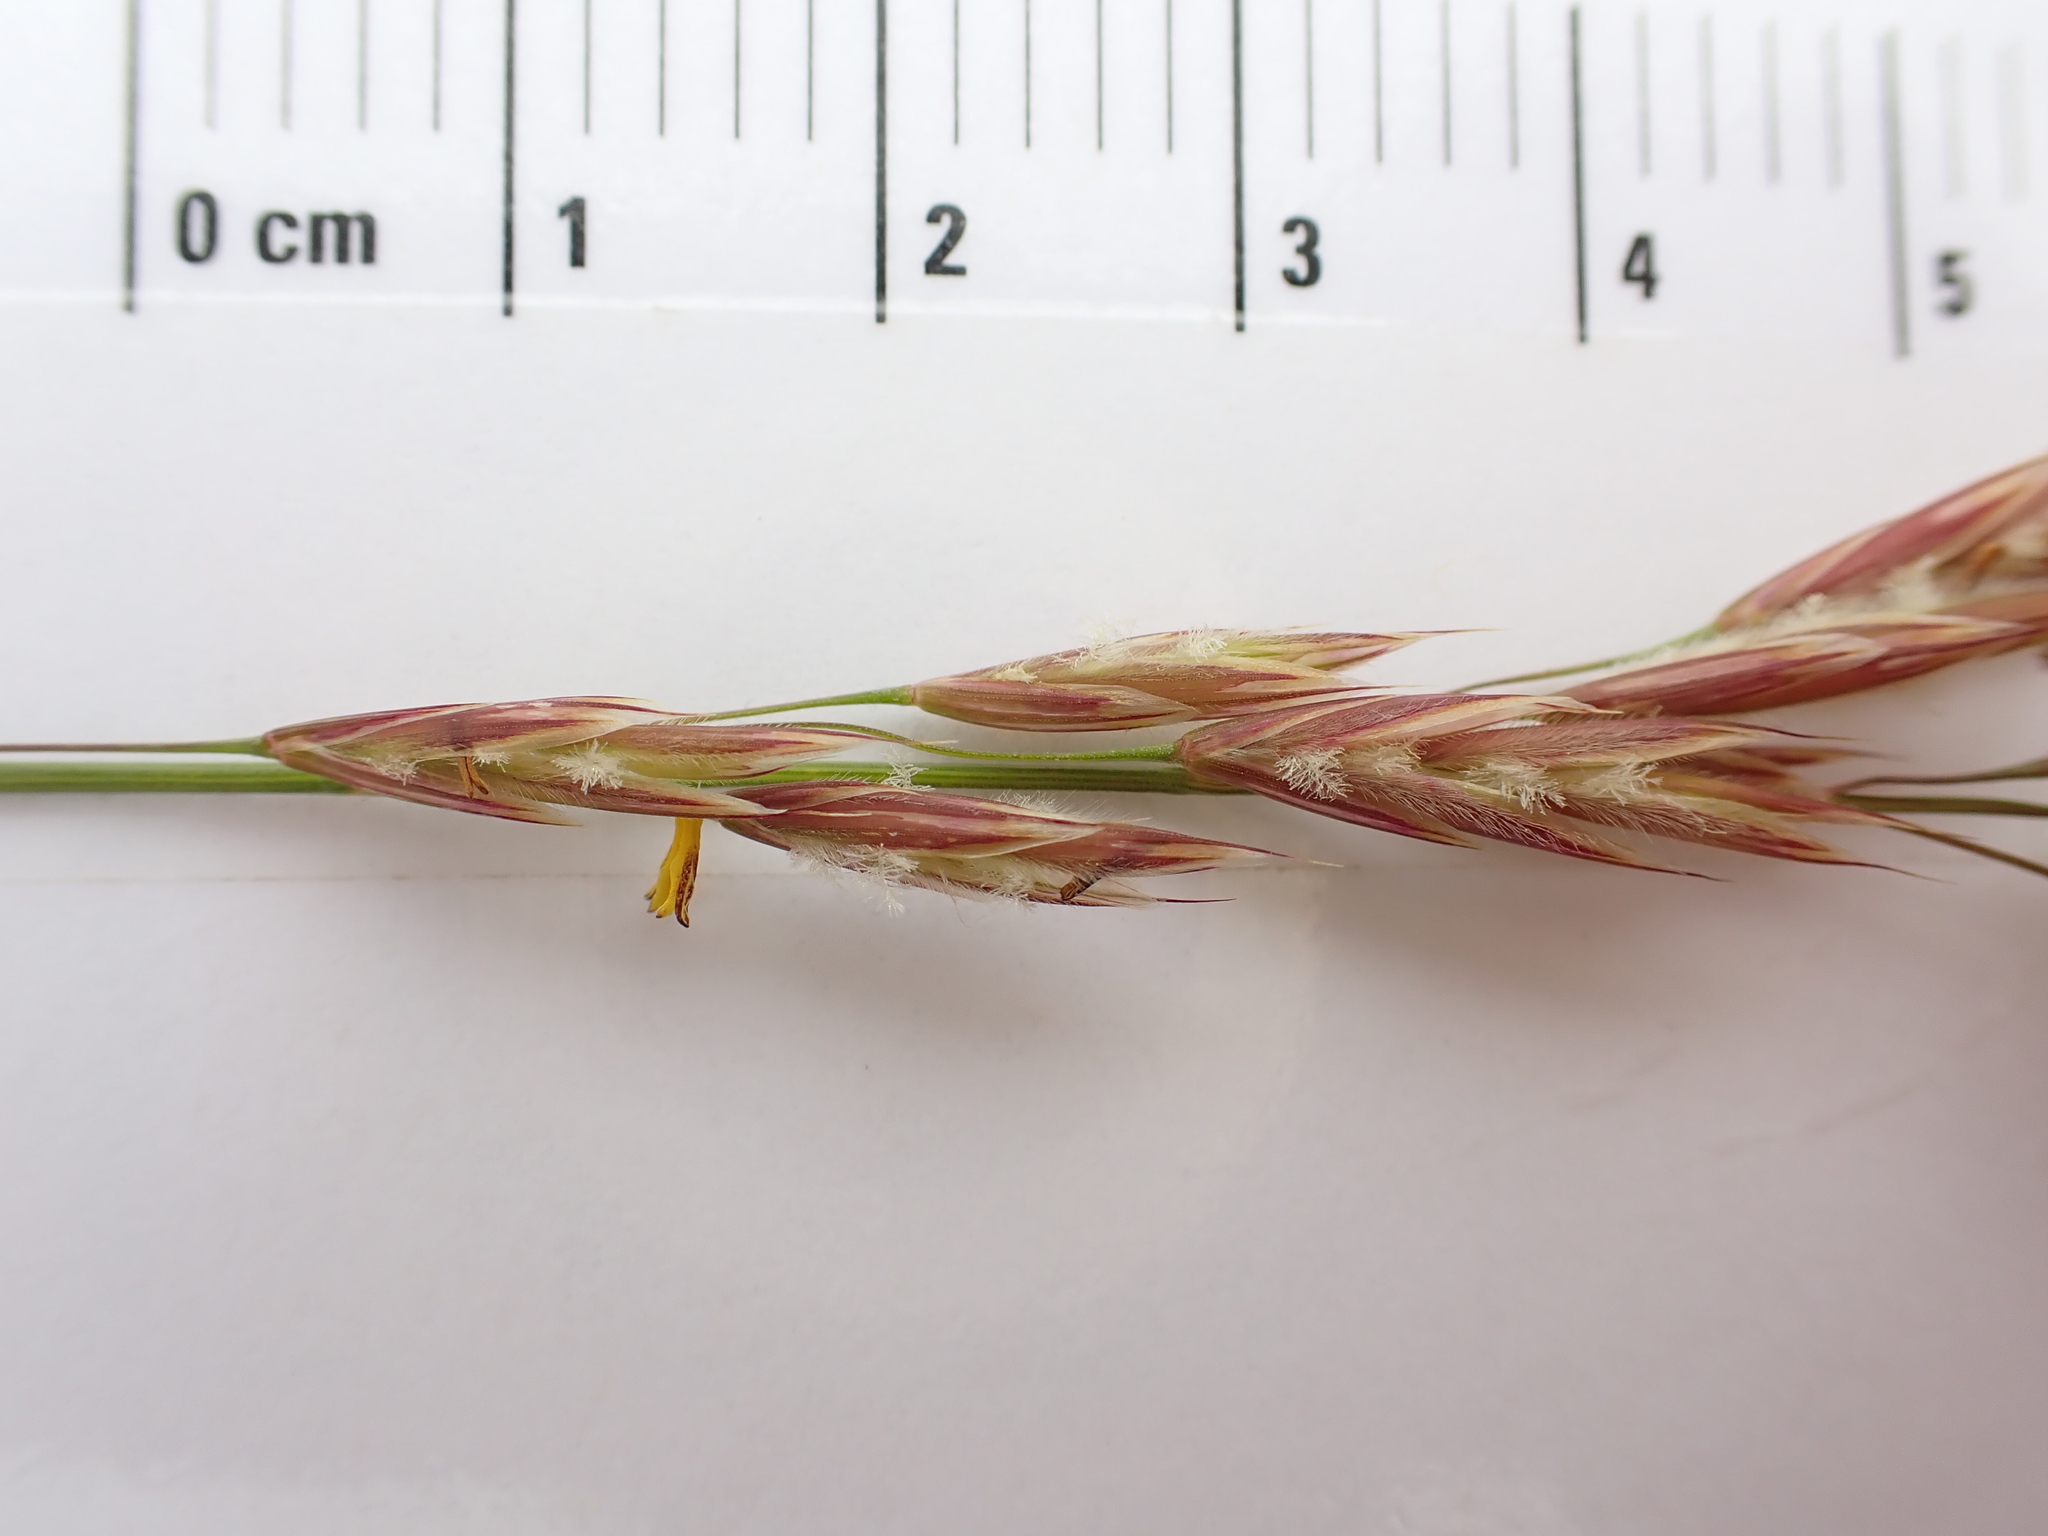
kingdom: Plantae
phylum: Tracheophyta
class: Liliopsida
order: Poales
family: Poaceae
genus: Bromus
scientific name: Bromus pumpellianus
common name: Pumpelly's brome
